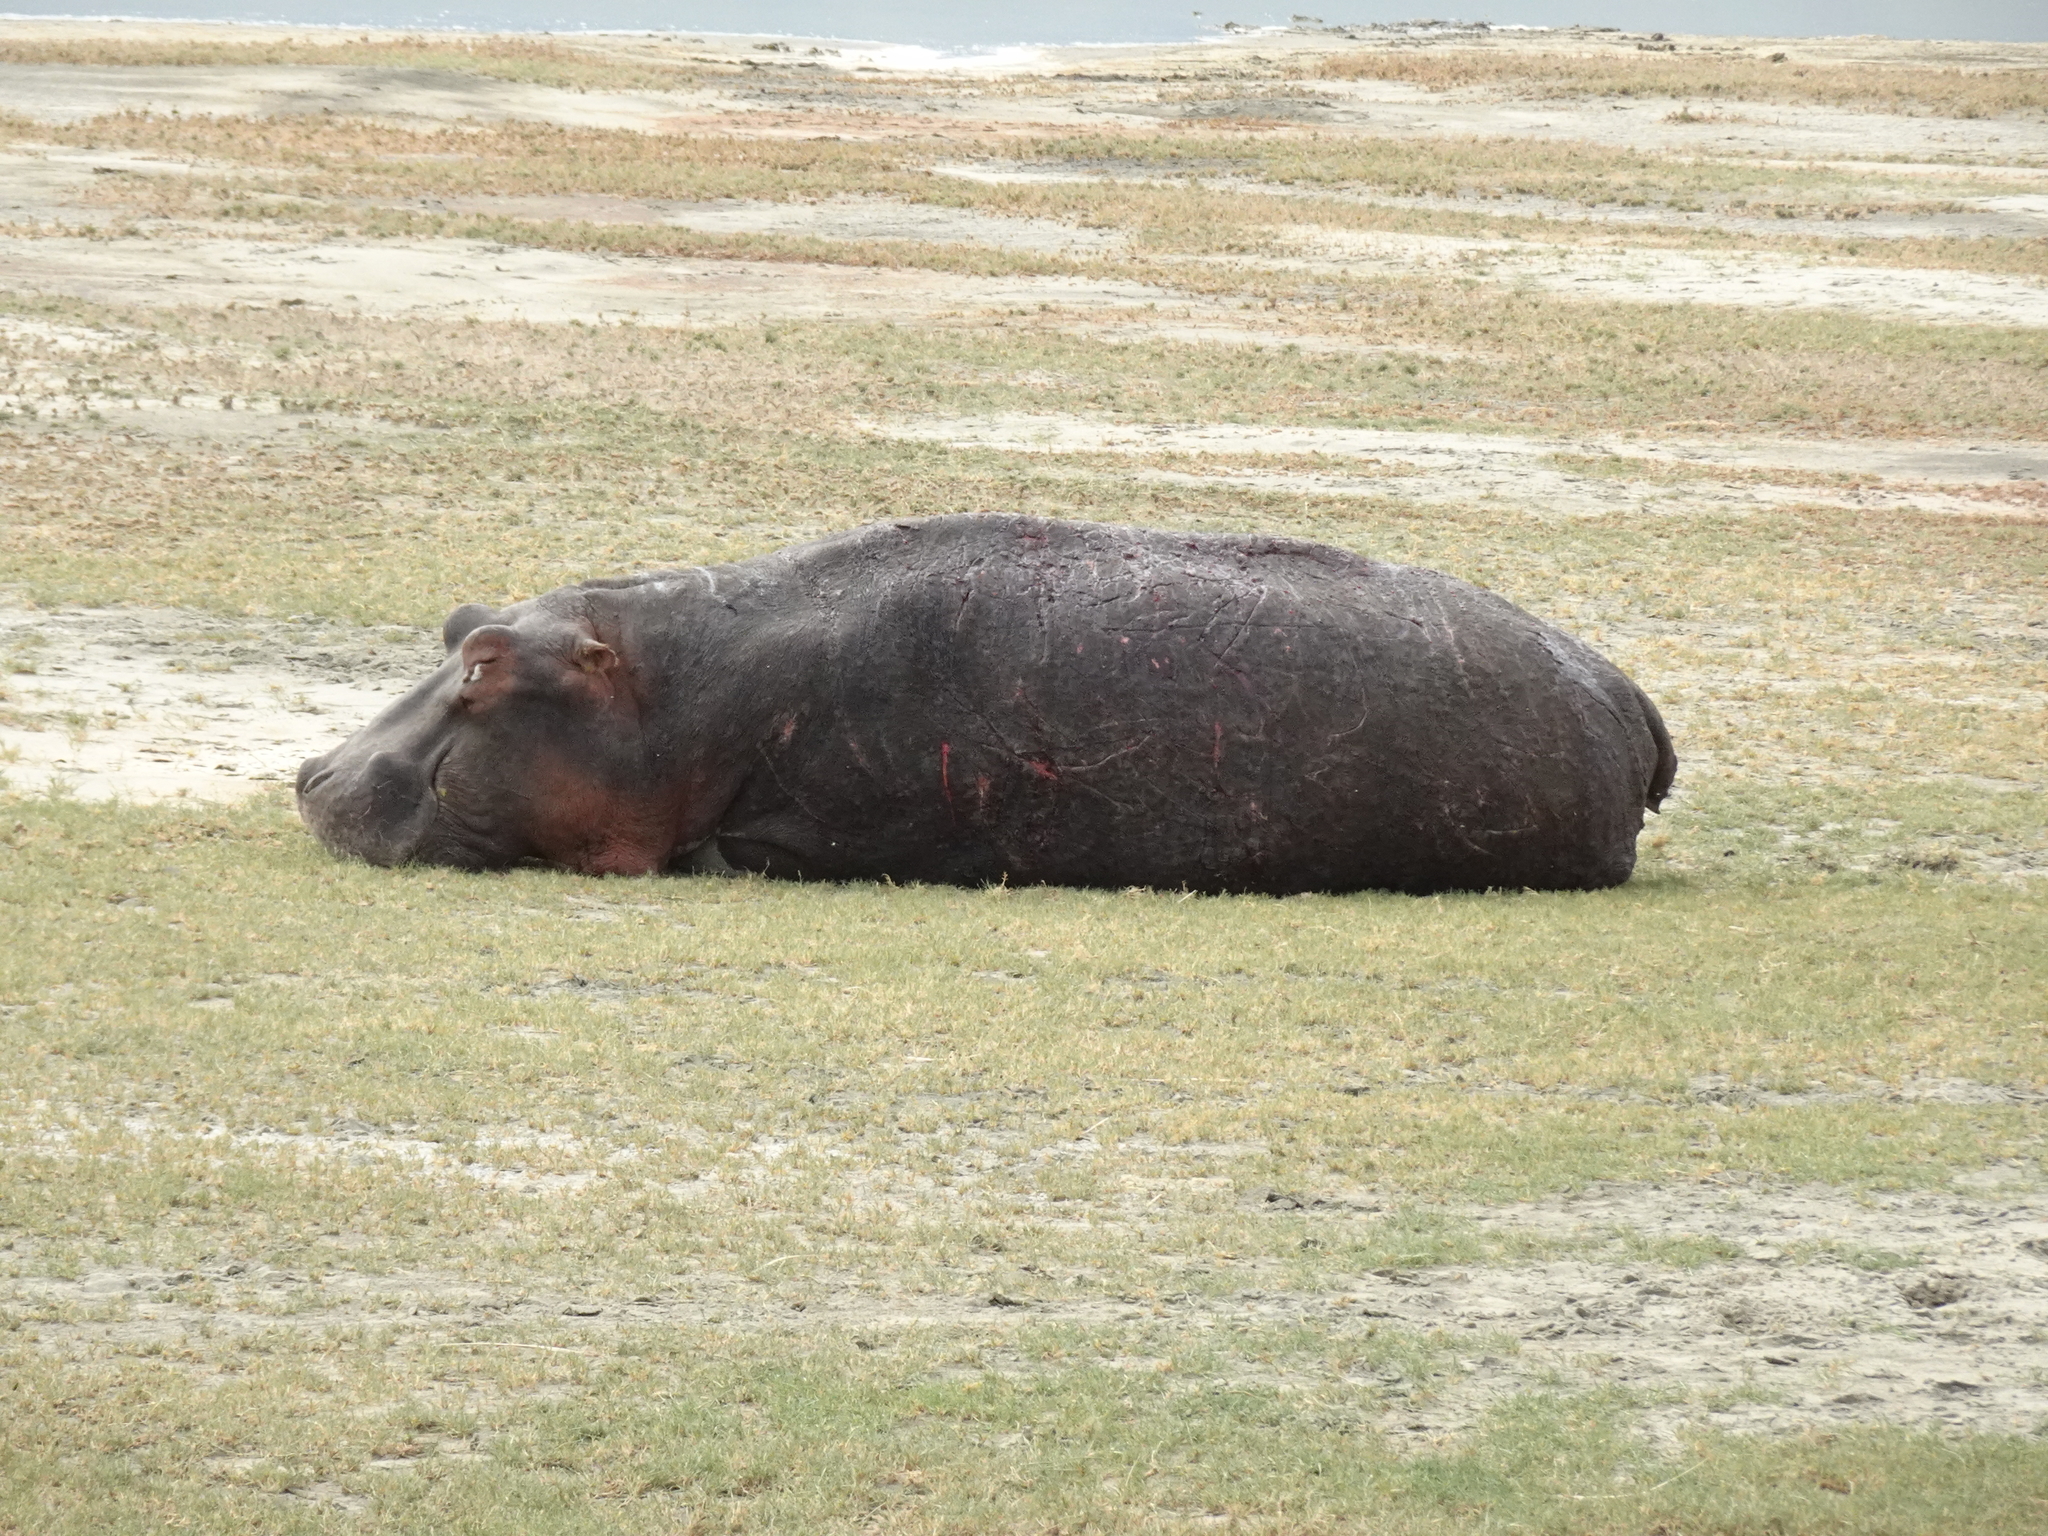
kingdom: Animalia
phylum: Chordata
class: Mammalia
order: Artiodactyla
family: Hippopotamidae
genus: Hippopotamus
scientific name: Hippopotamus amphibius
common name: Common hippopotamus
